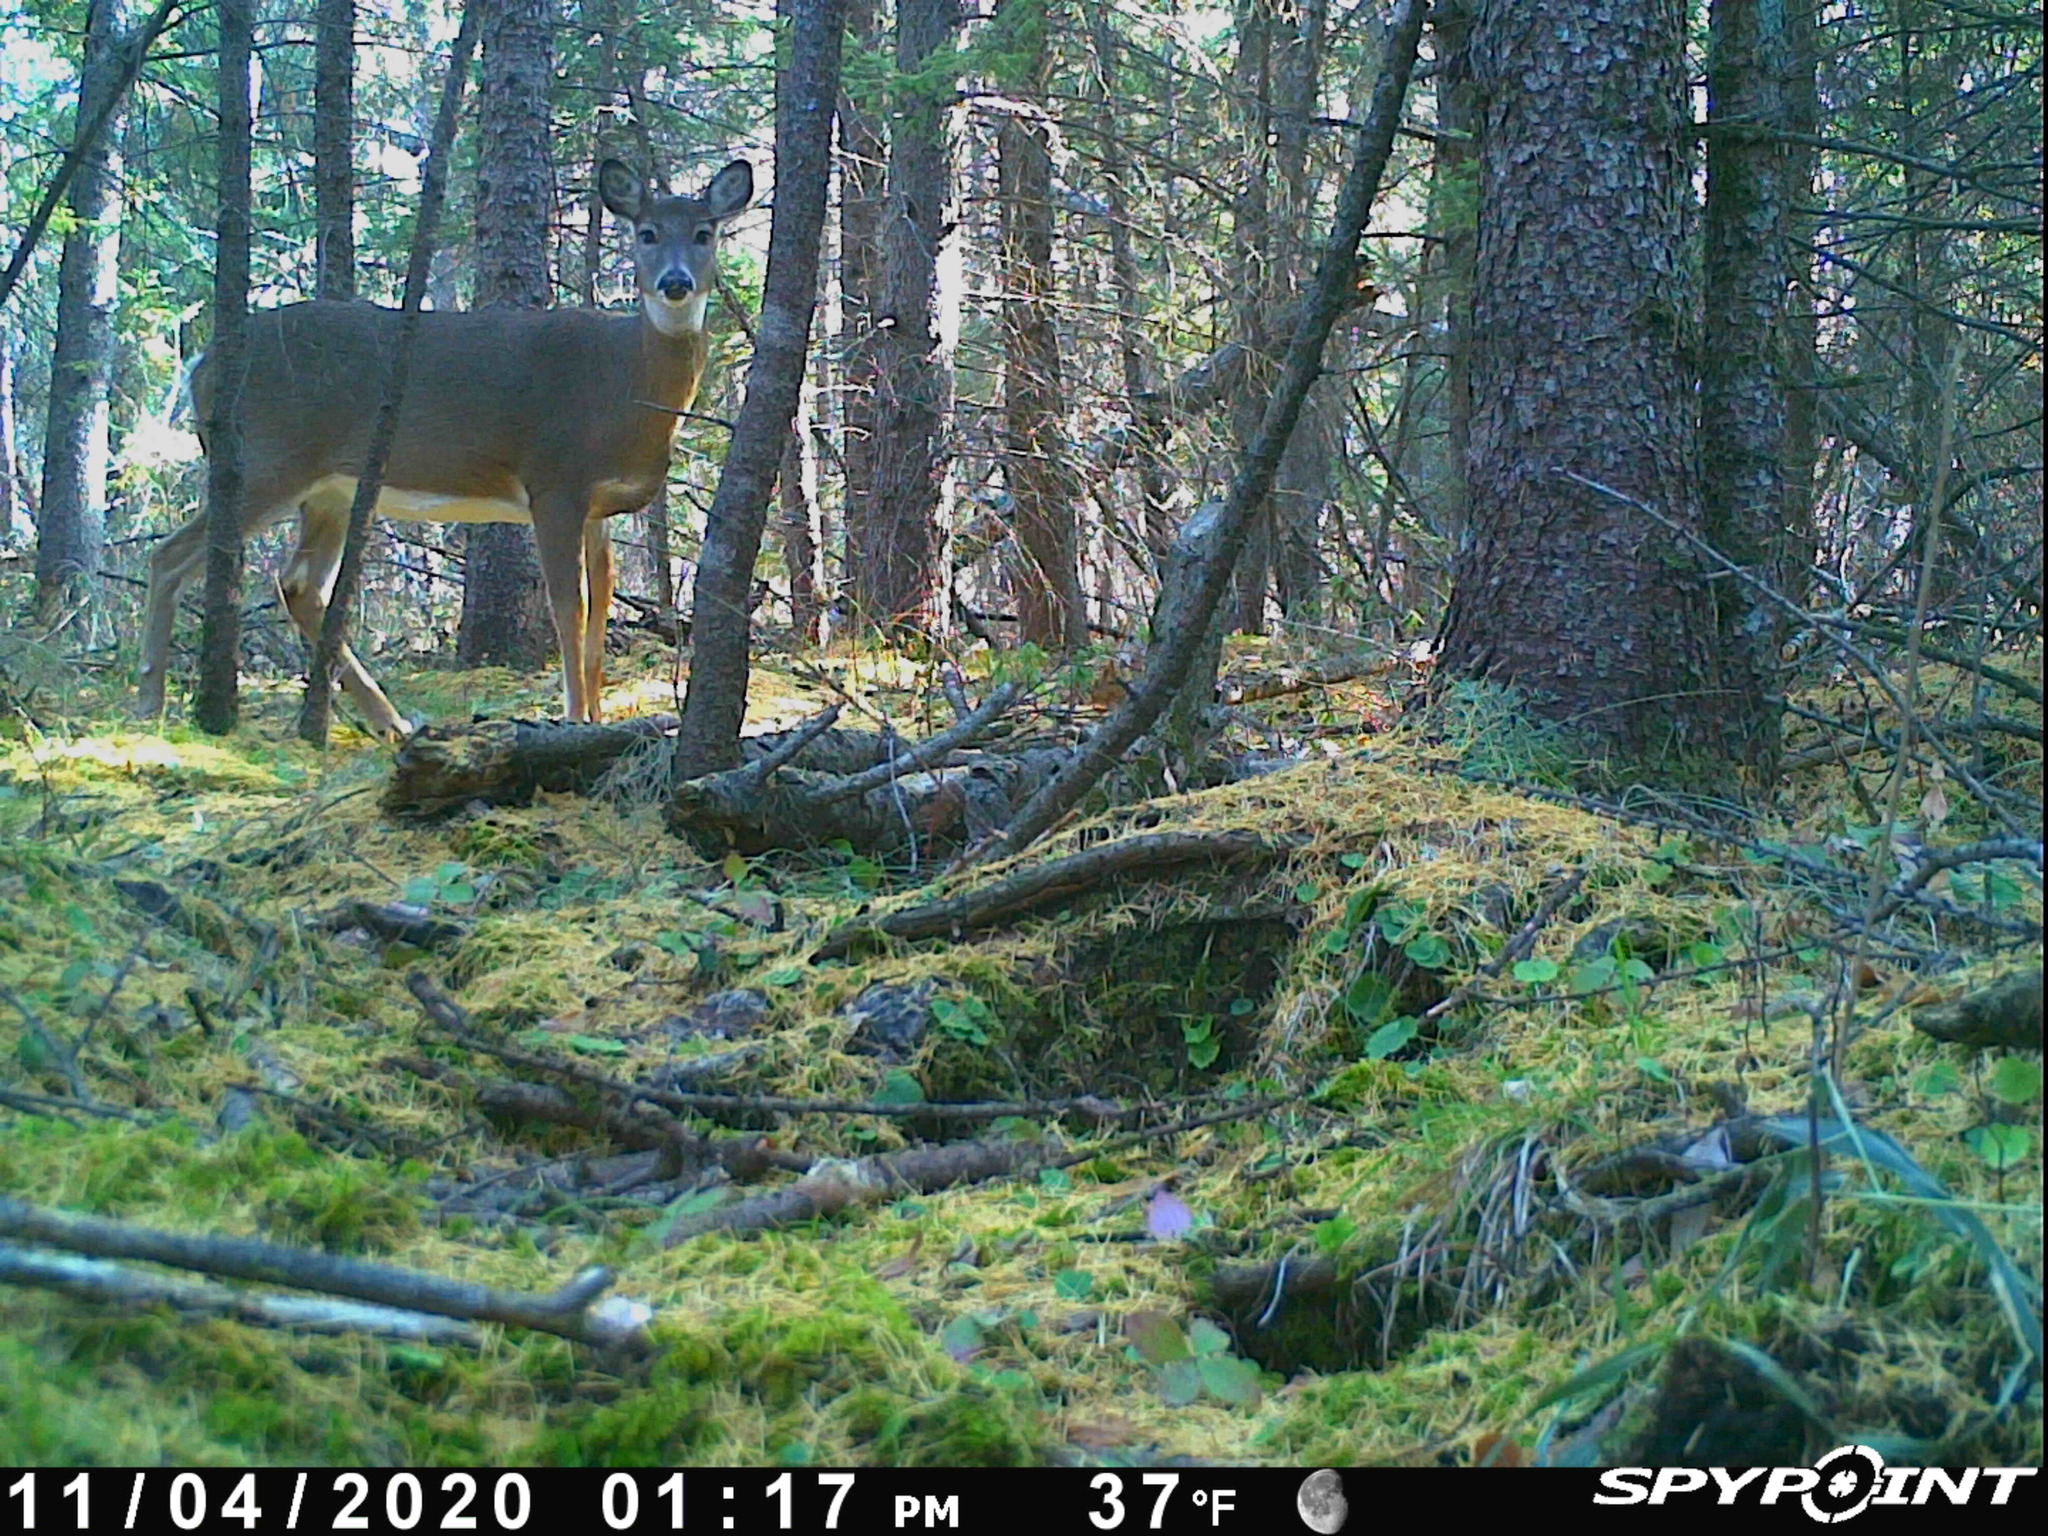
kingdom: Animalia
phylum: Chordata
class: Mammalia
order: Artiodactyla
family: Cervidae
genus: Odocoileus
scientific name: Odocoileus virginianus
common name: White-tailed deer
